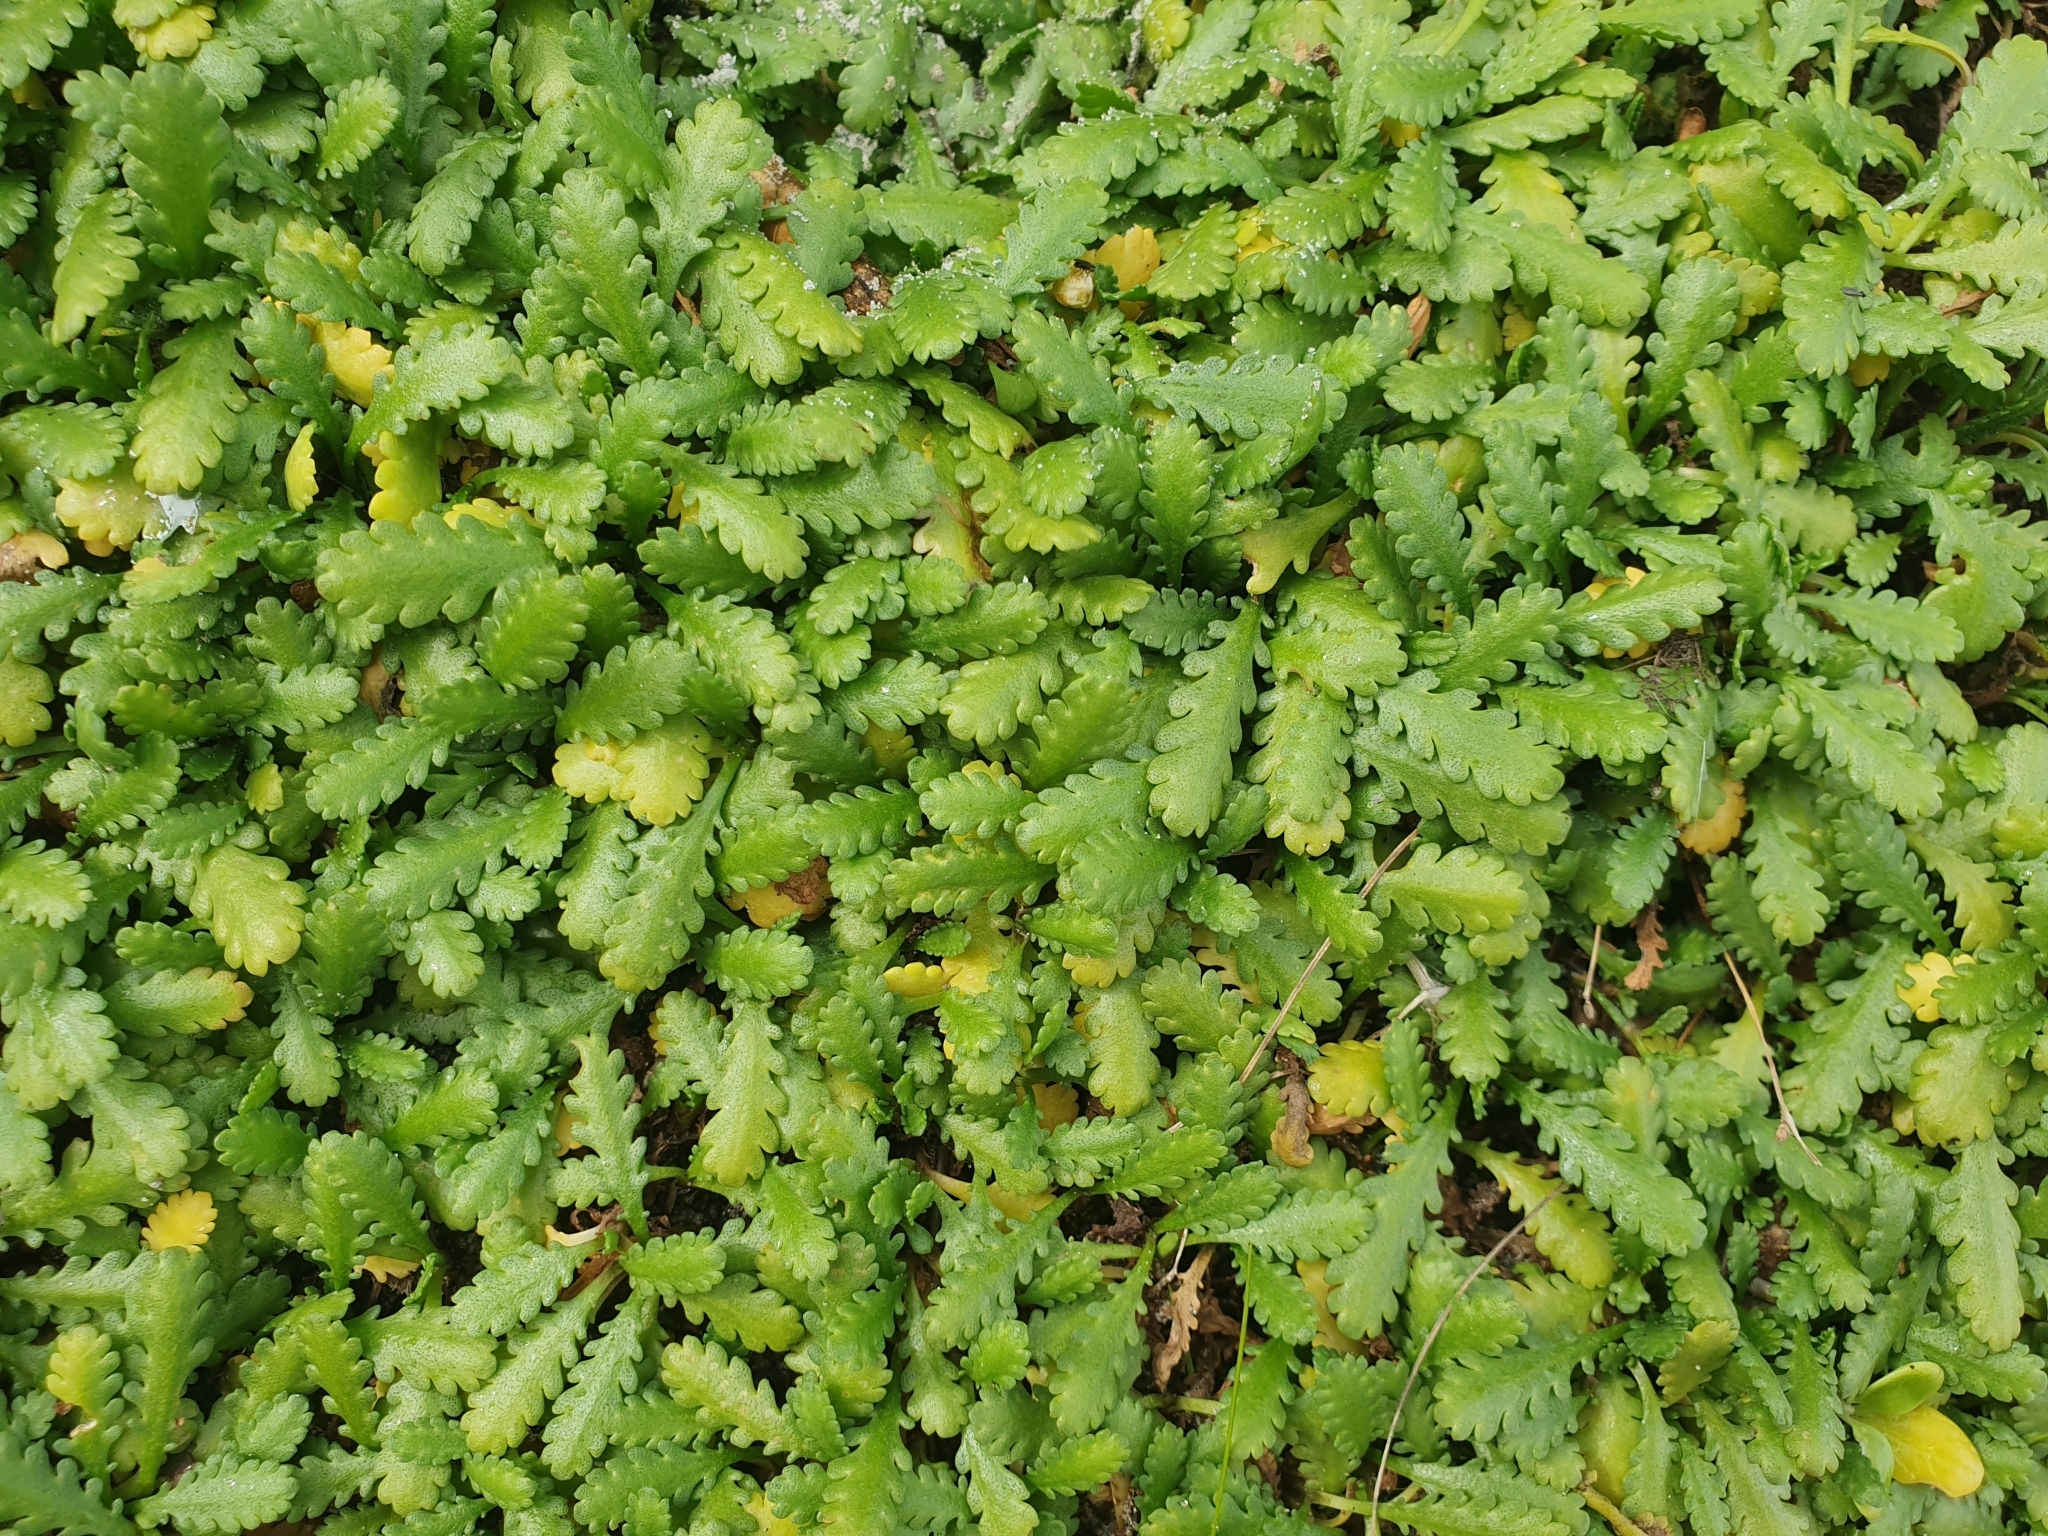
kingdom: Plantae
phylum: Tracheophyta
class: Magnoliopsida
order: Asterales
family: Asteraceae
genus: Leptinella
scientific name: Leptinella dioica
